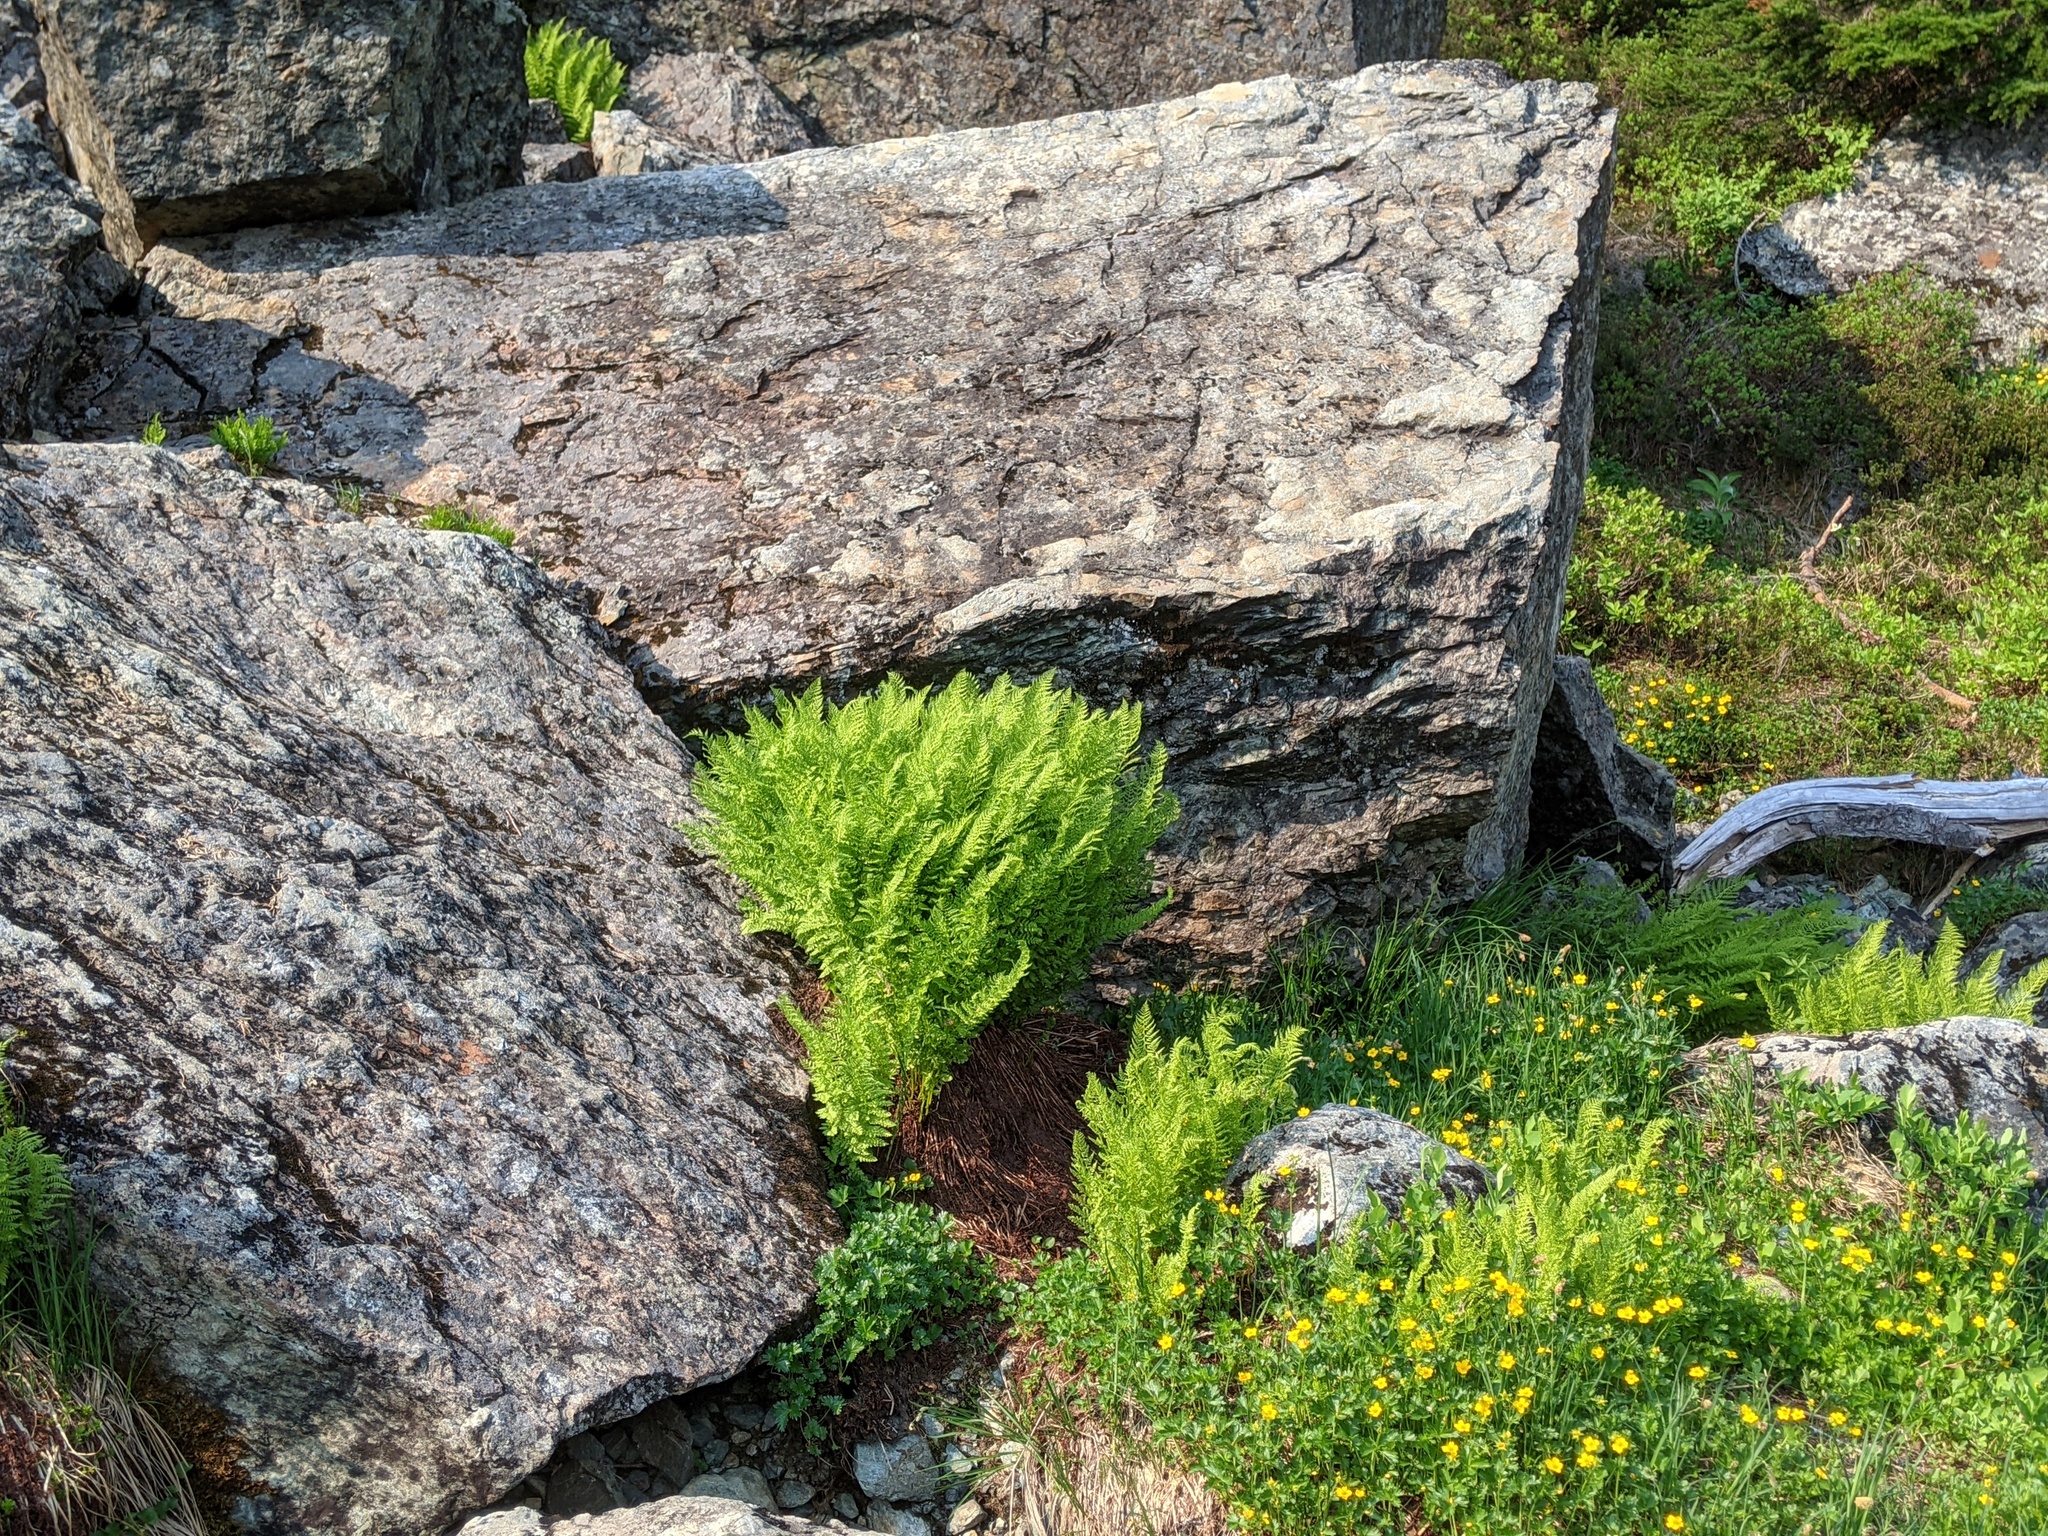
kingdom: Plantae
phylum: Tracheophyta
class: Polypodiopsida
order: Polypodiales
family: Athyriaceae
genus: Athyrium
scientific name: Athyrium americanum
